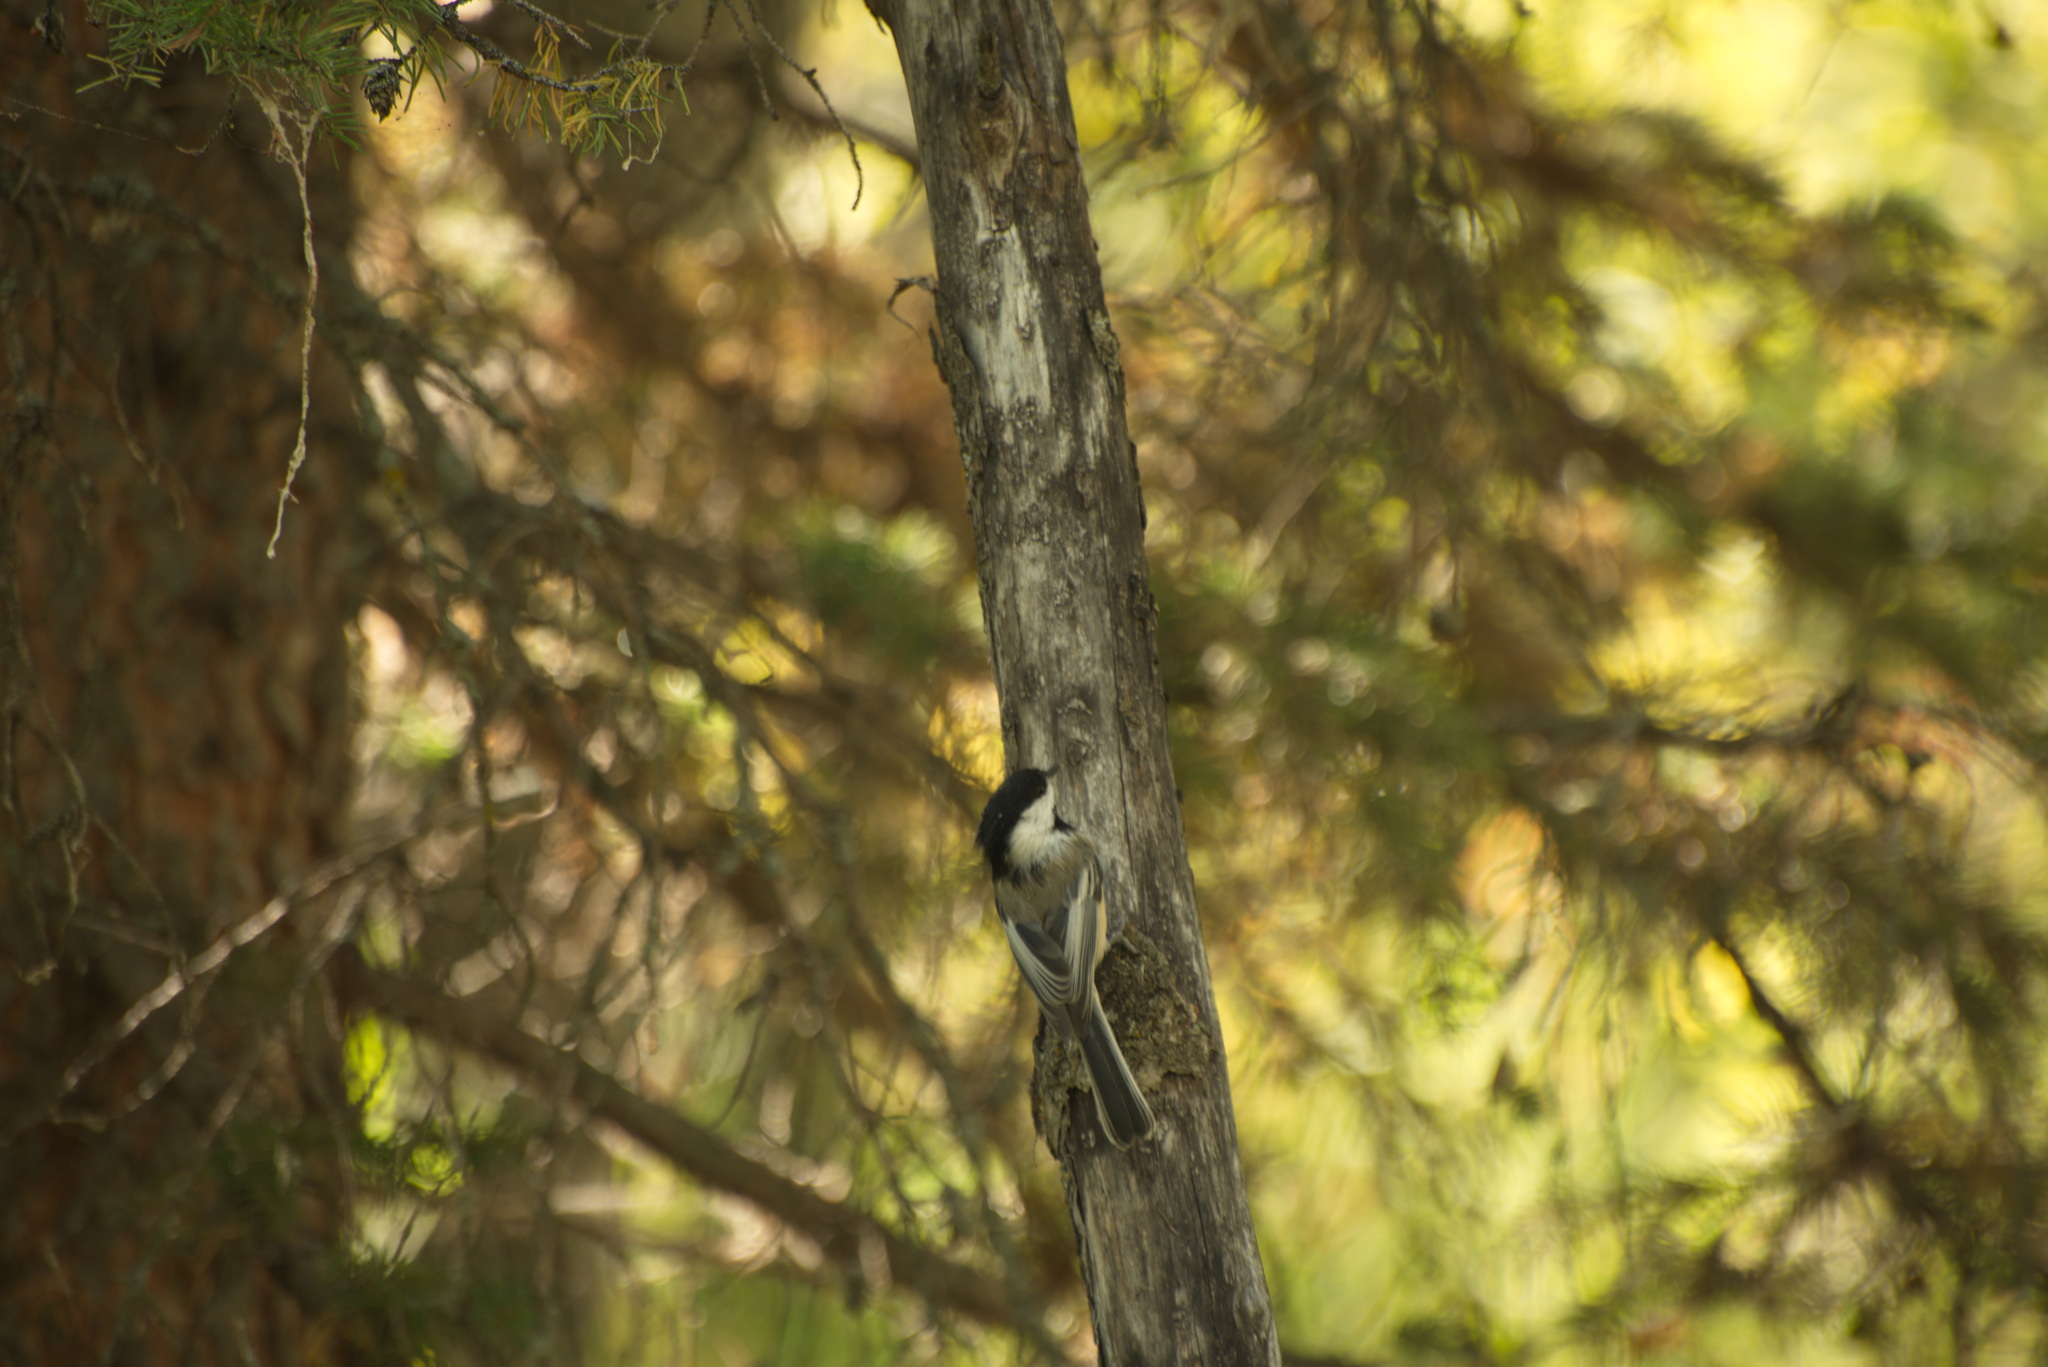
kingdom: Animalia
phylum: Chordata
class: Aves
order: Passeriformes
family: Paridae
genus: Poecile
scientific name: Poecile atricapillus
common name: Black-capped chickadee
